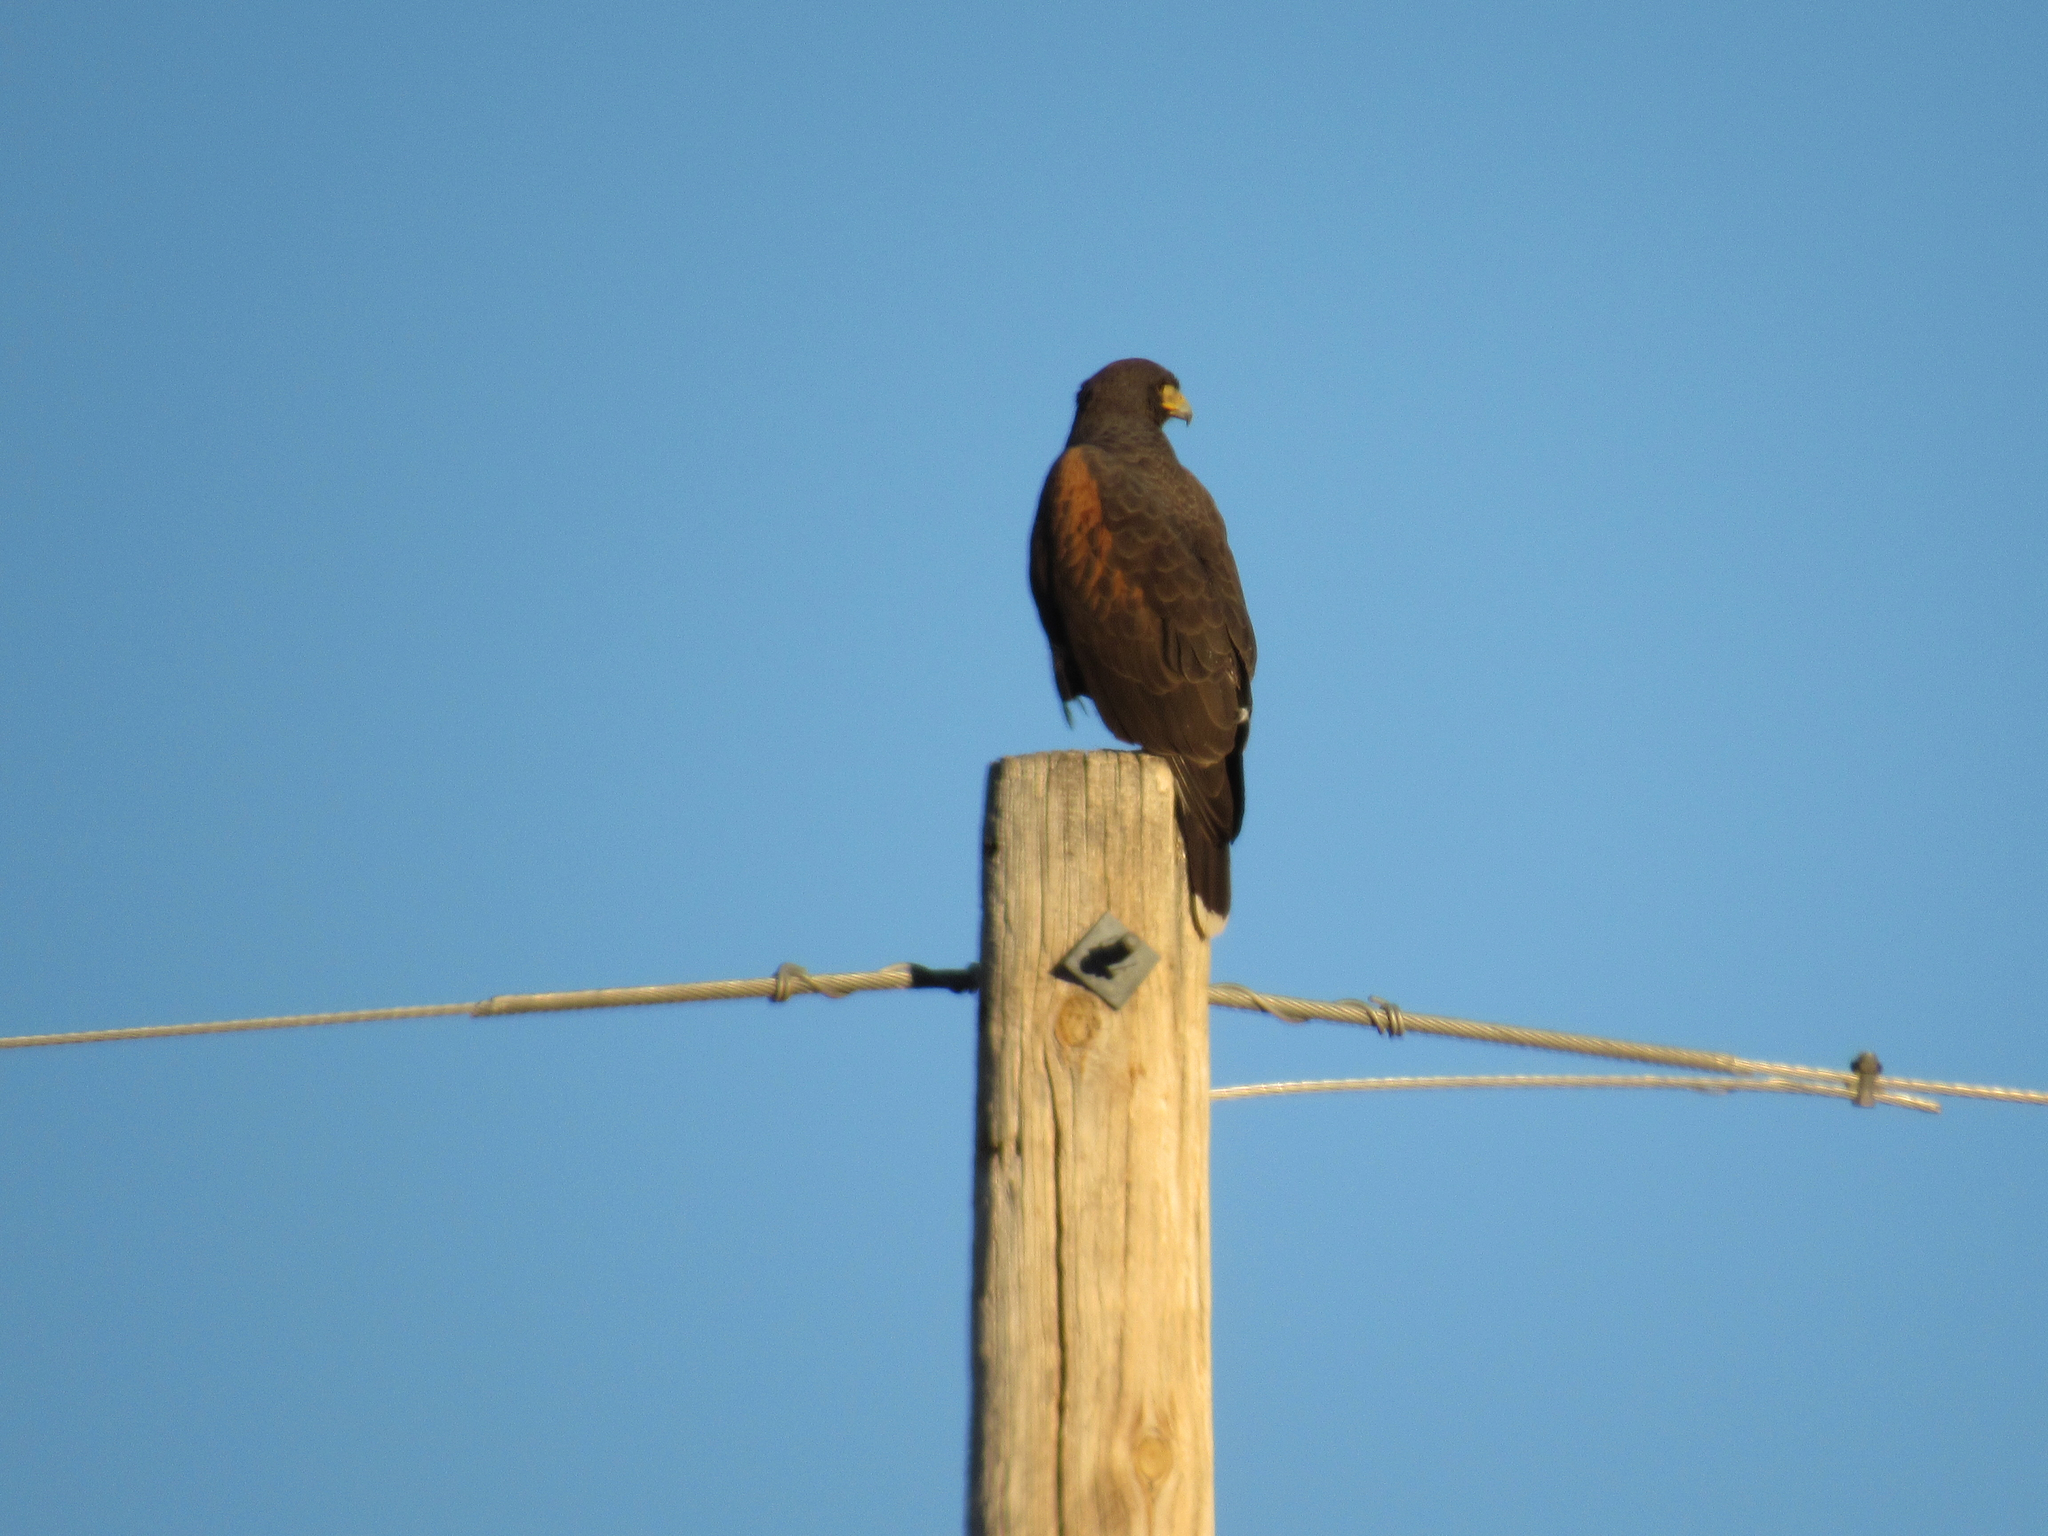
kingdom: Animalia
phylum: Chordata
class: Aves
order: Accipitriformes
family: Accipitridae
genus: Parabuteo
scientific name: Parabuteo unicinctus
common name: Harris's hawk
